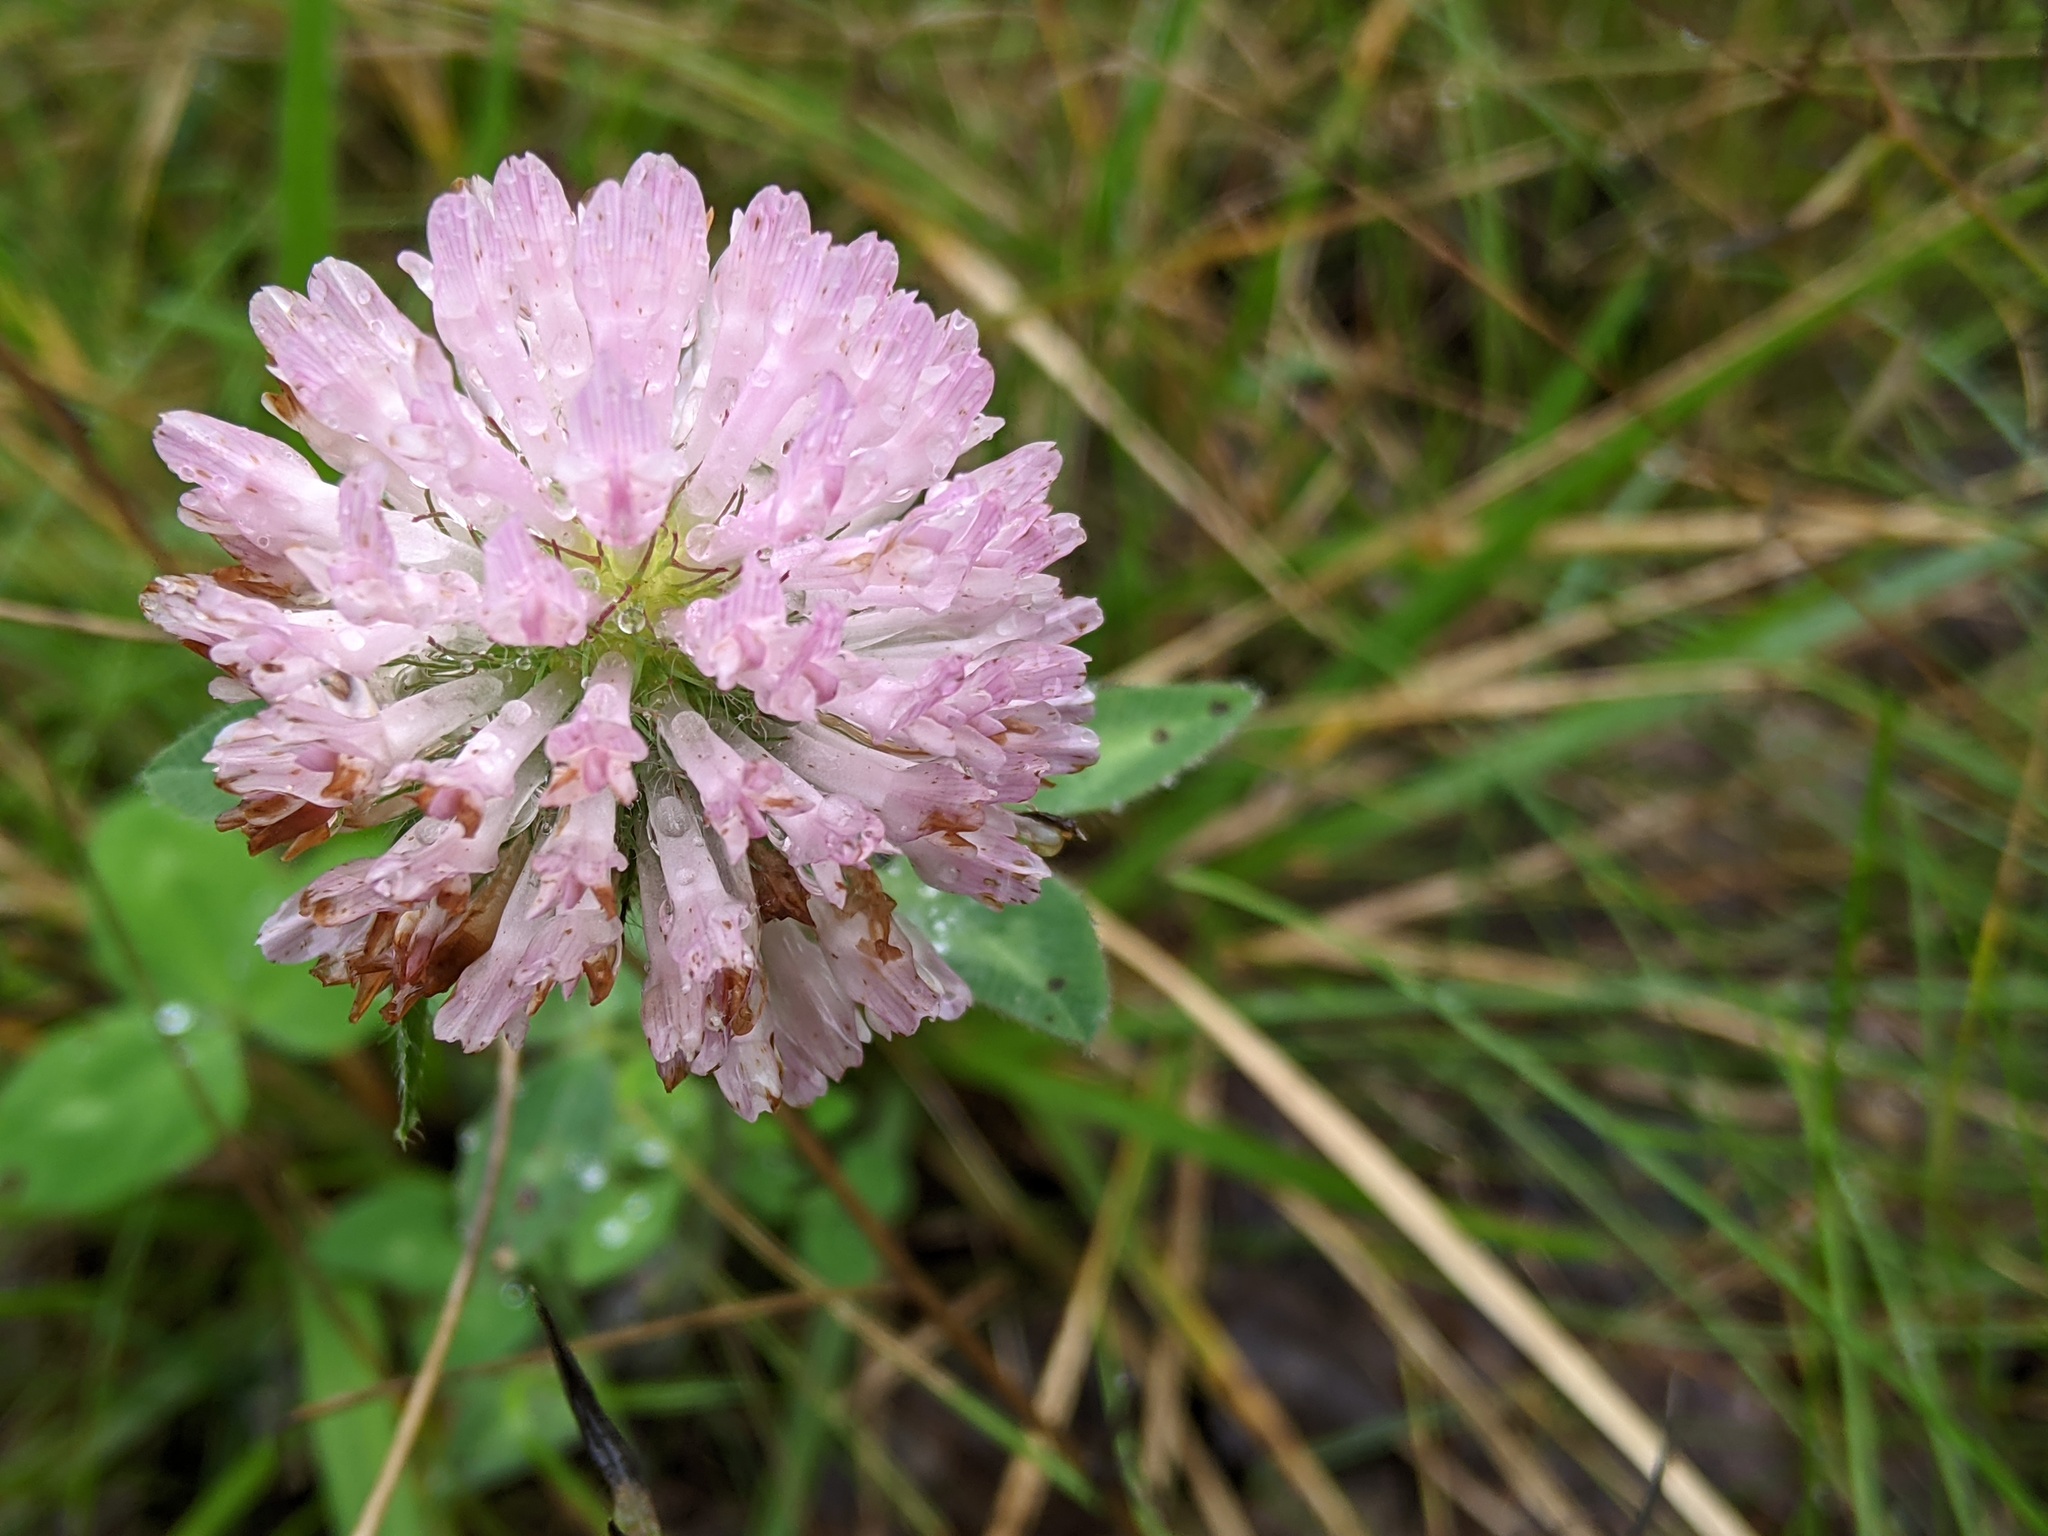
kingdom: Plantae
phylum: Tracheophyta
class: Magnoliopsida
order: Fabales
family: Fabaceae
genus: Trifolium
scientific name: Trifolium pratense
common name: Red clover
